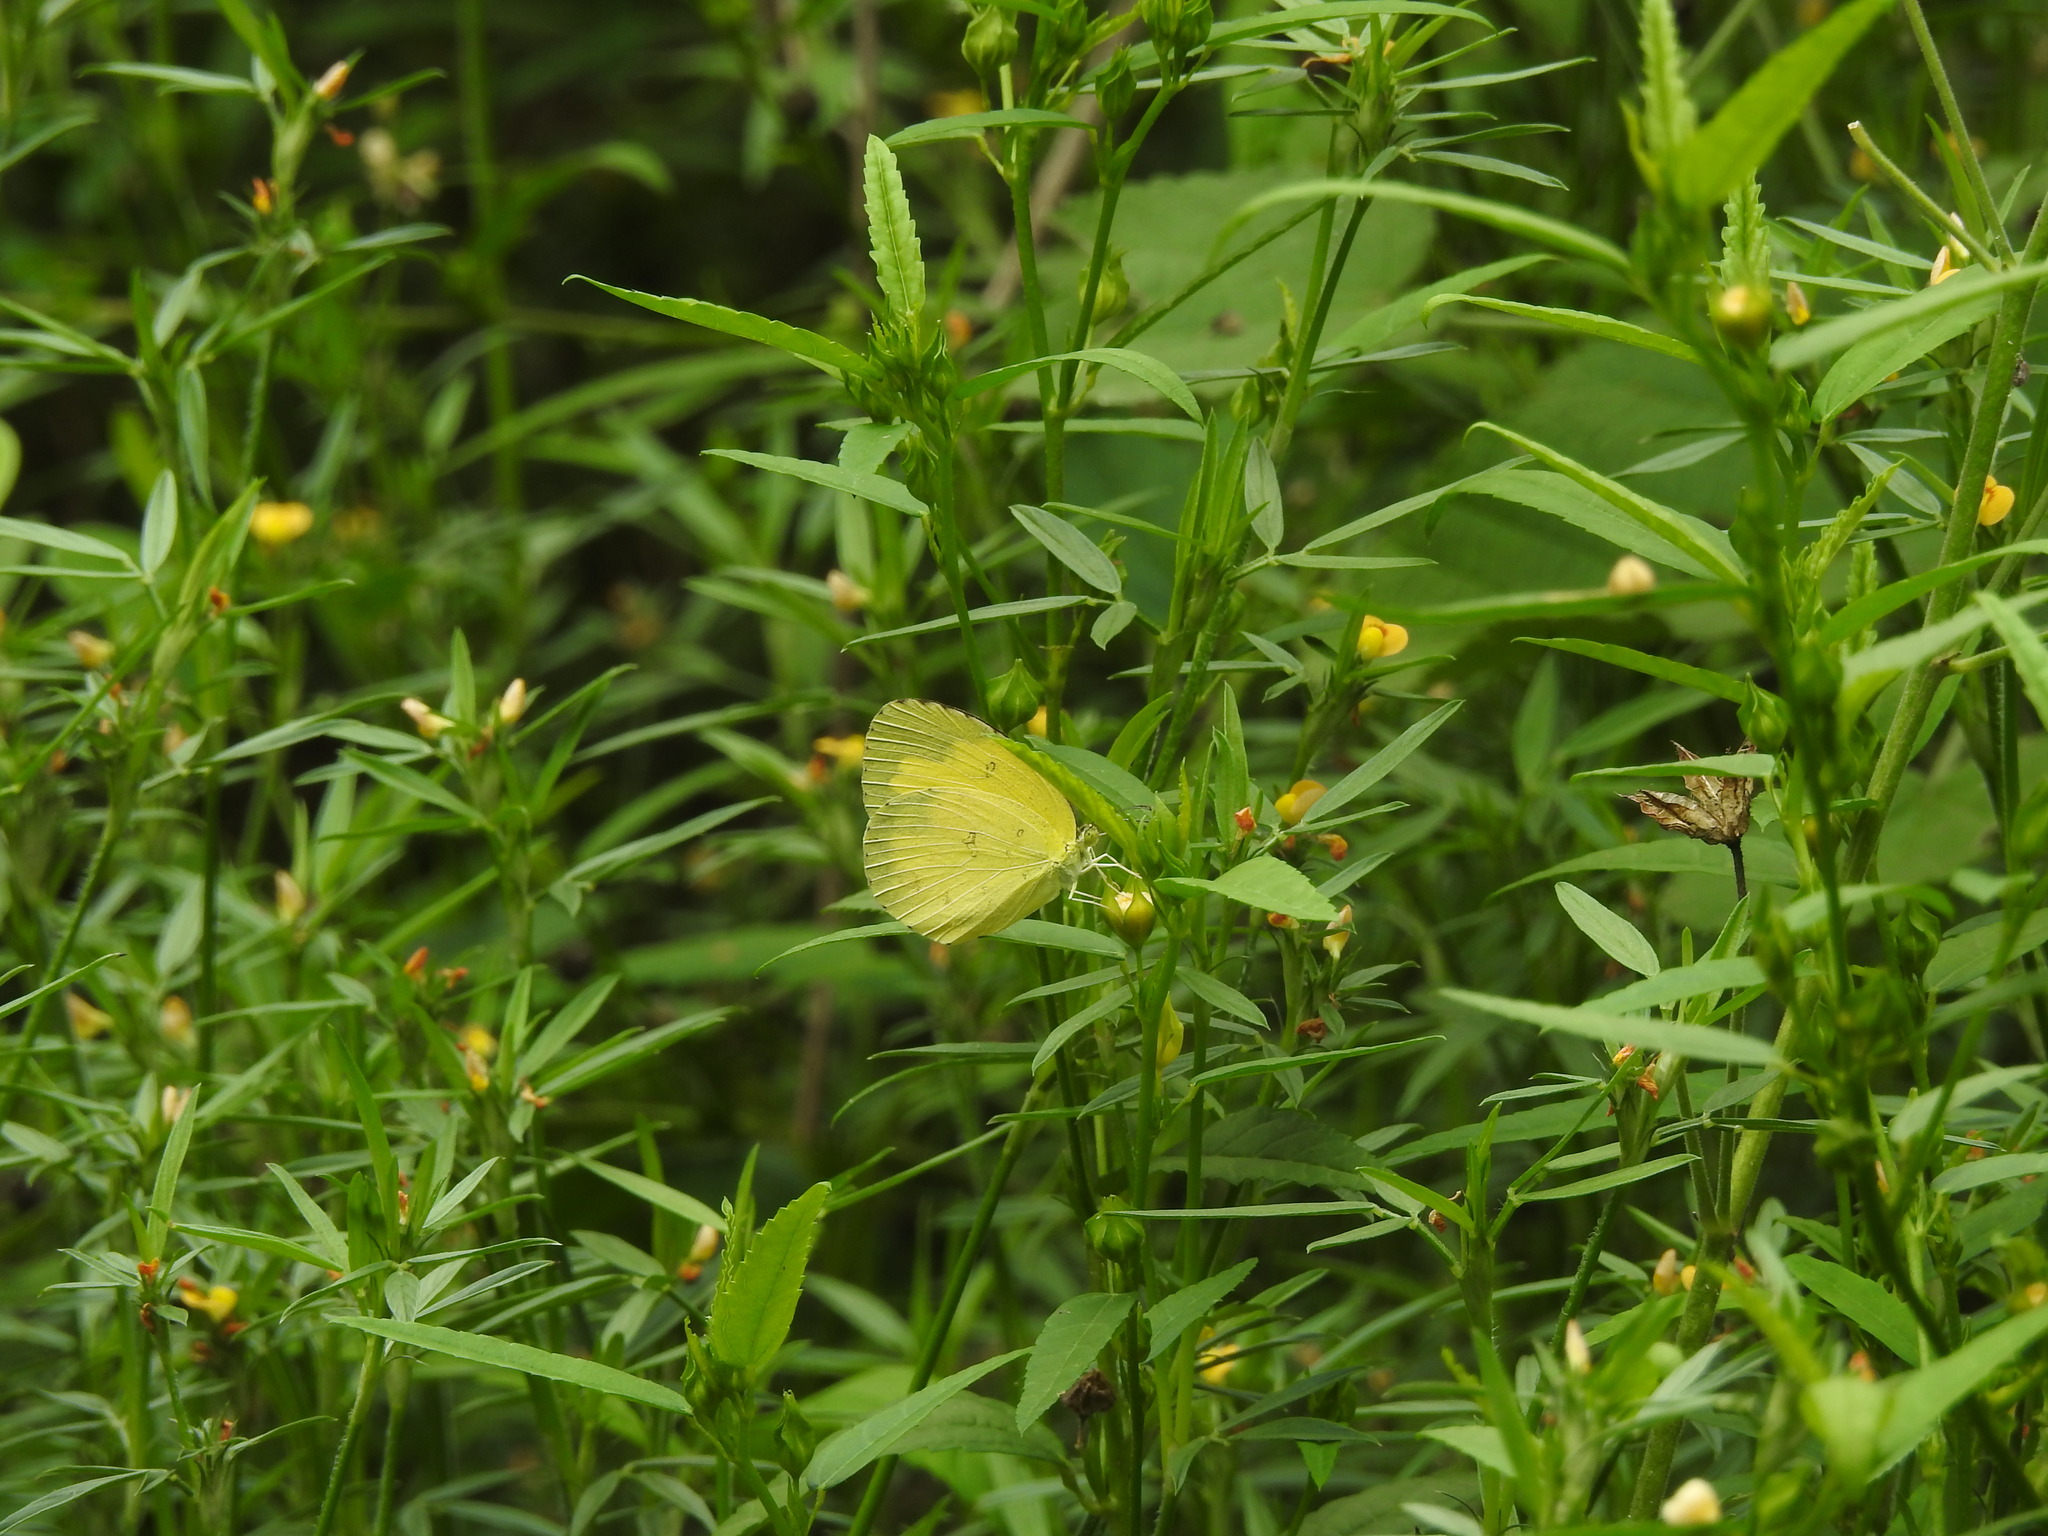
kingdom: Animalia
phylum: Arthropoda
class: Insecta
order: Lepidoptera
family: Pieridae
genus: Eurema
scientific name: Eurema hecabe
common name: Pale grass yellow
